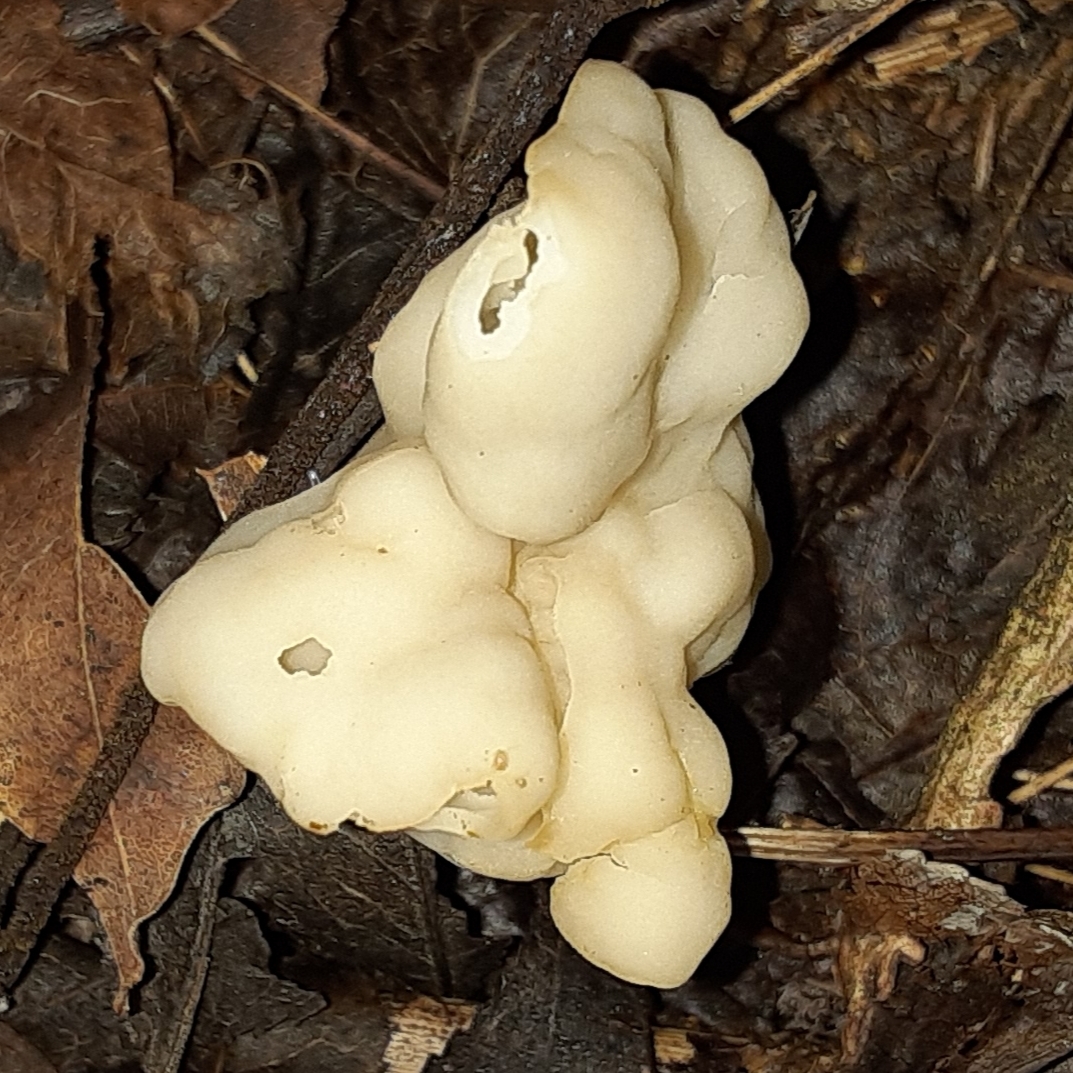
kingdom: Fungi
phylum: Ascomycota
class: Pezizomycetes
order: Pezizales
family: Helvellaceae
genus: Helvella
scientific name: Helvella crispa
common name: White saddle
